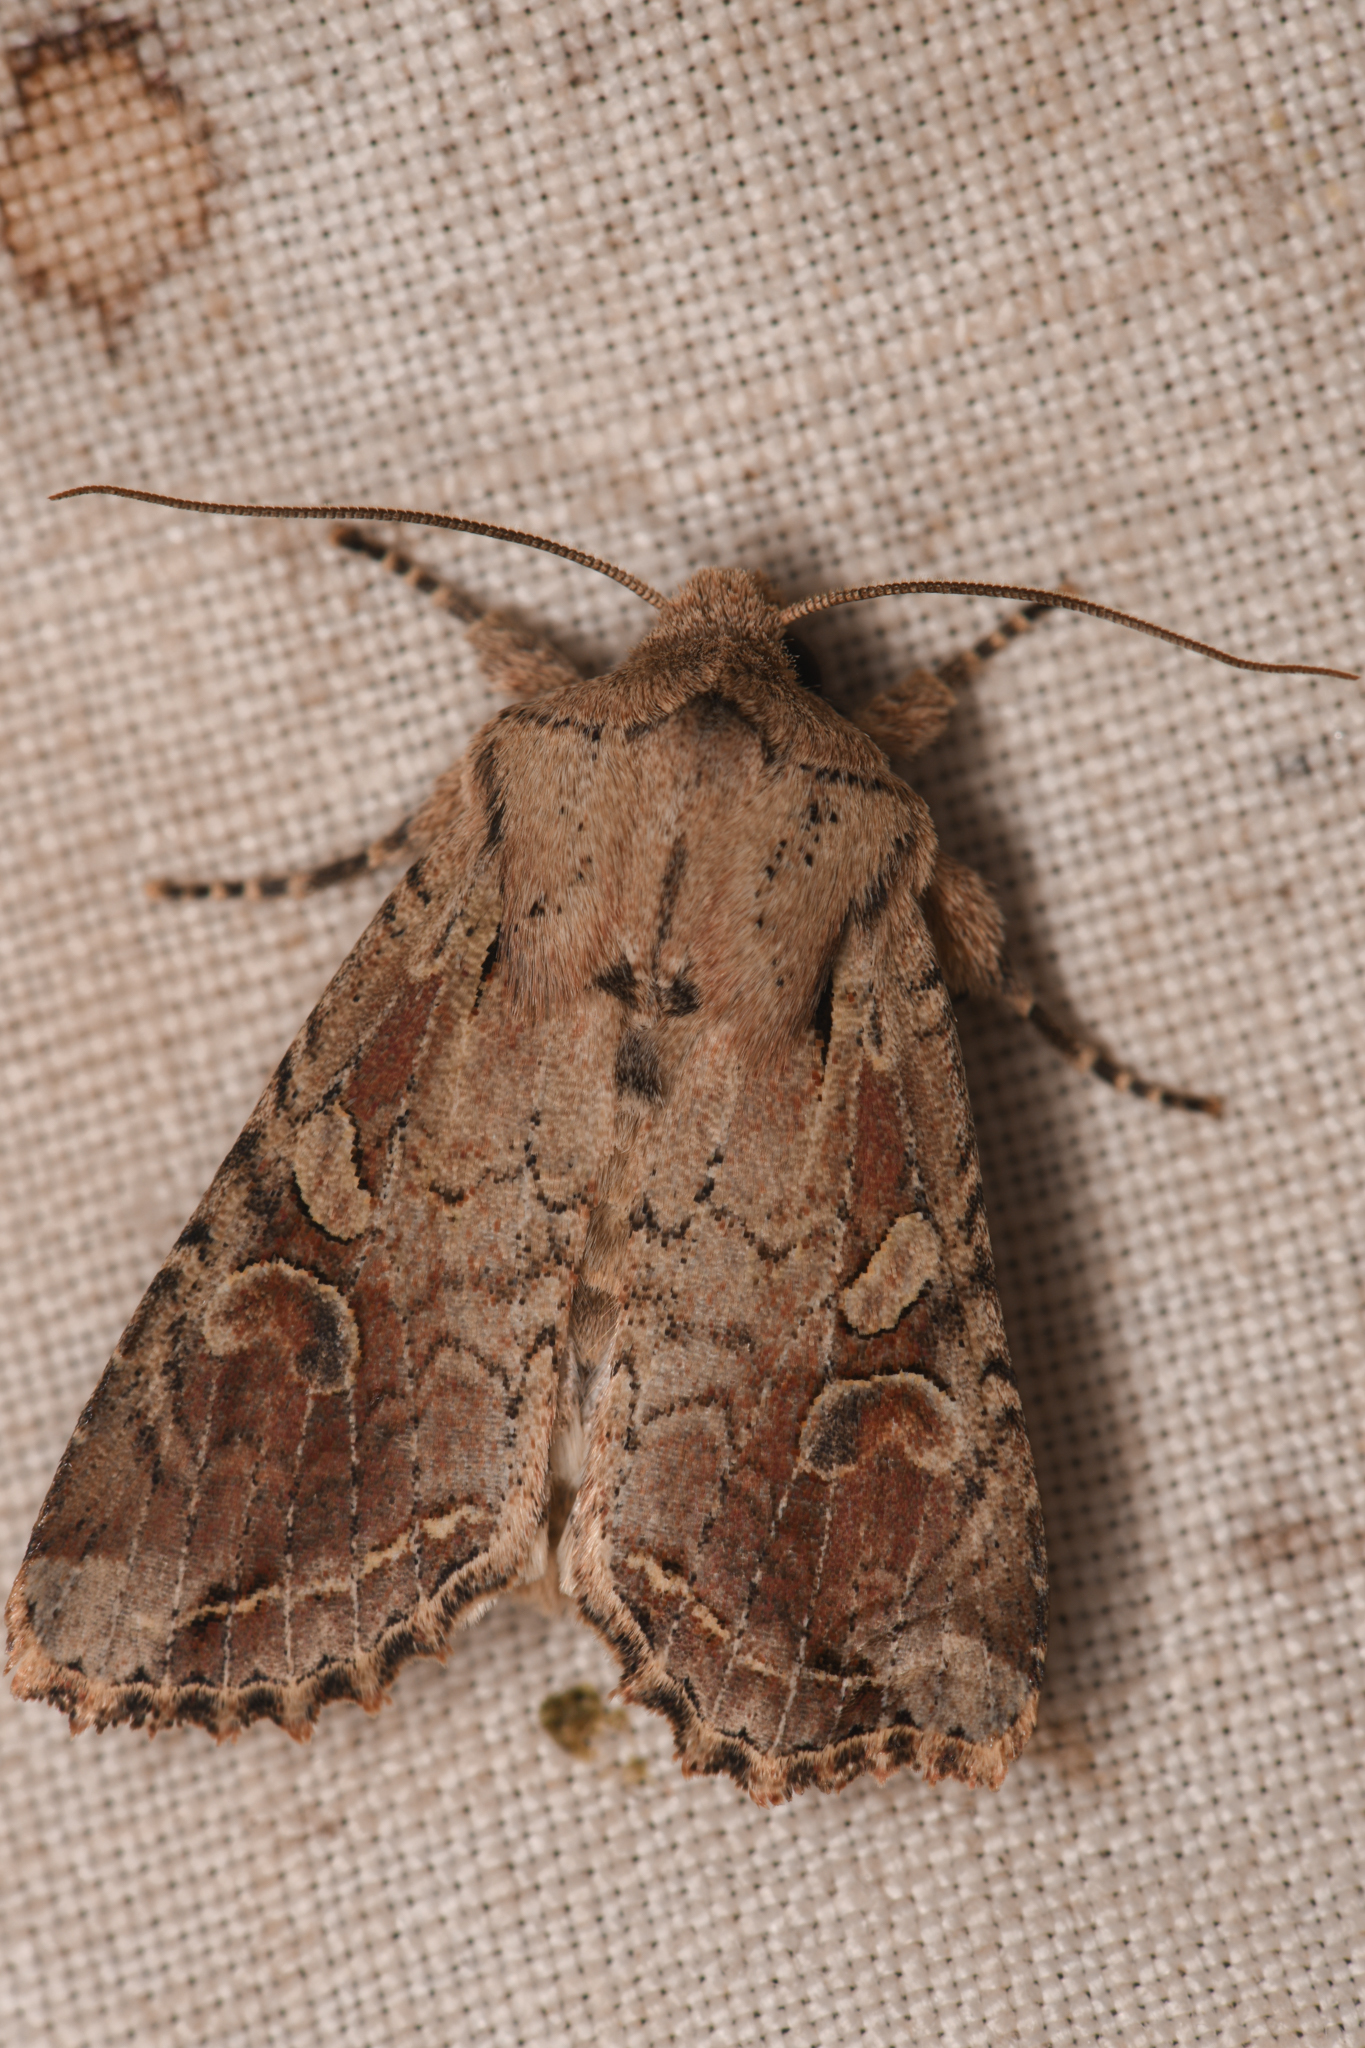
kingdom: Animalia
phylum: Arthropoda
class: Insecta
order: Lepidoptera
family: Noctuidae
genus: Egira
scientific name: Egira rubrica
